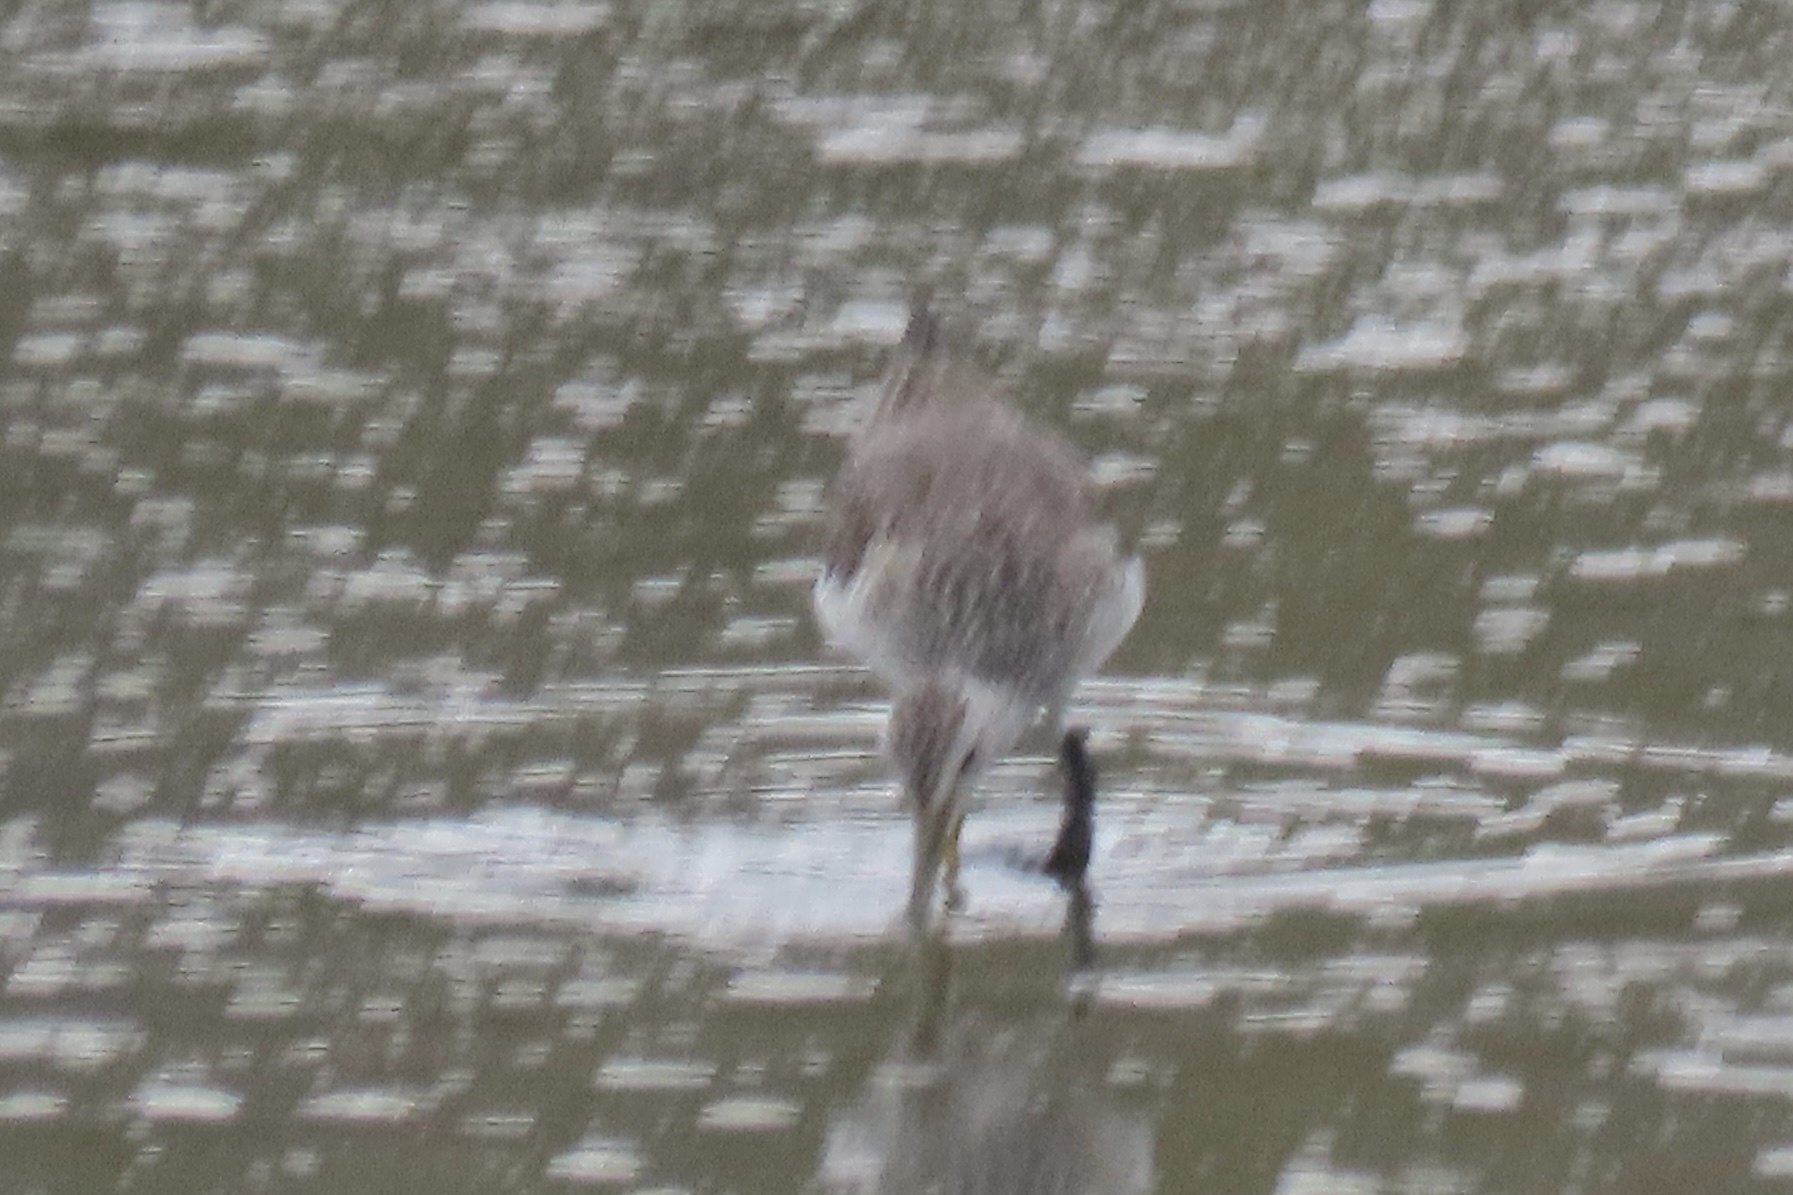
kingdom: Animalia
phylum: Chordata
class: Aves
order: Charadriiformes
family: Scolopacidae
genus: Tringa
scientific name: Tringa melanoleuca
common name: Greater yellowlegs
